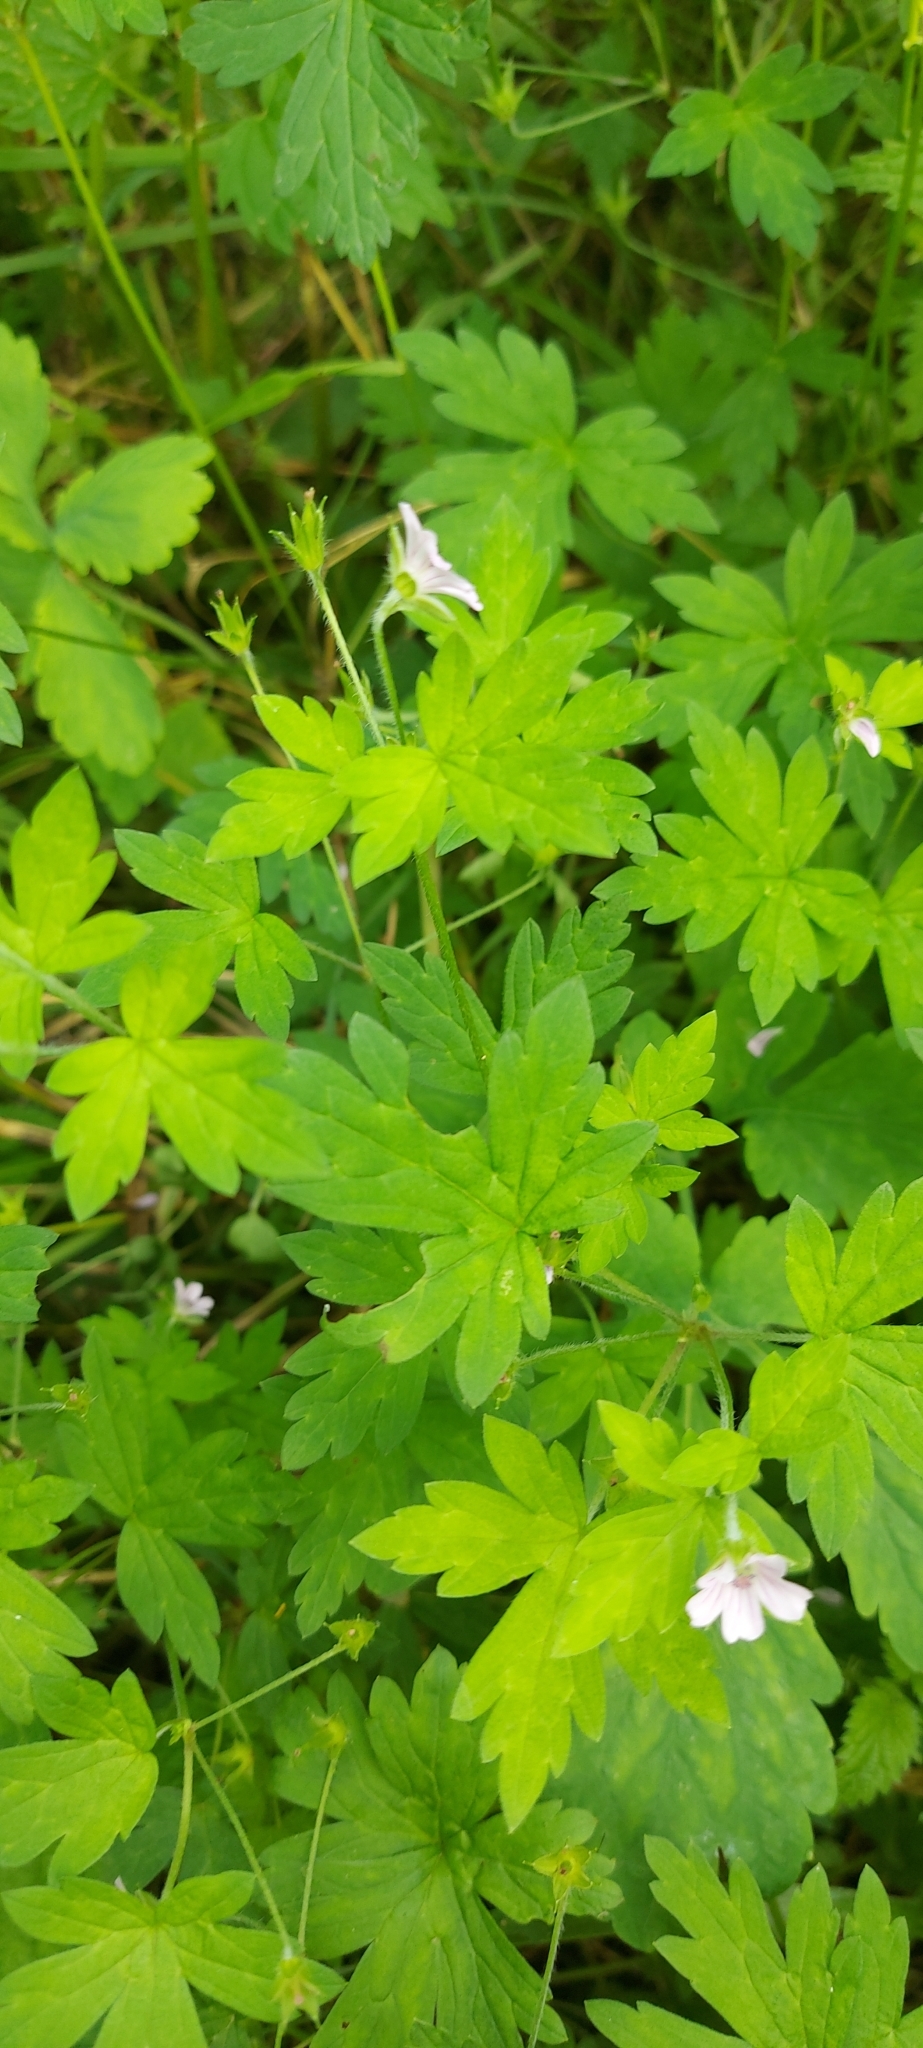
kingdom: Plantae
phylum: Tracheophyta
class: Magnoliopsida
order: Geraniales
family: Geraniaceae
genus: Geranium
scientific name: Geranium sibiricum
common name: Siberian crane's-bill
